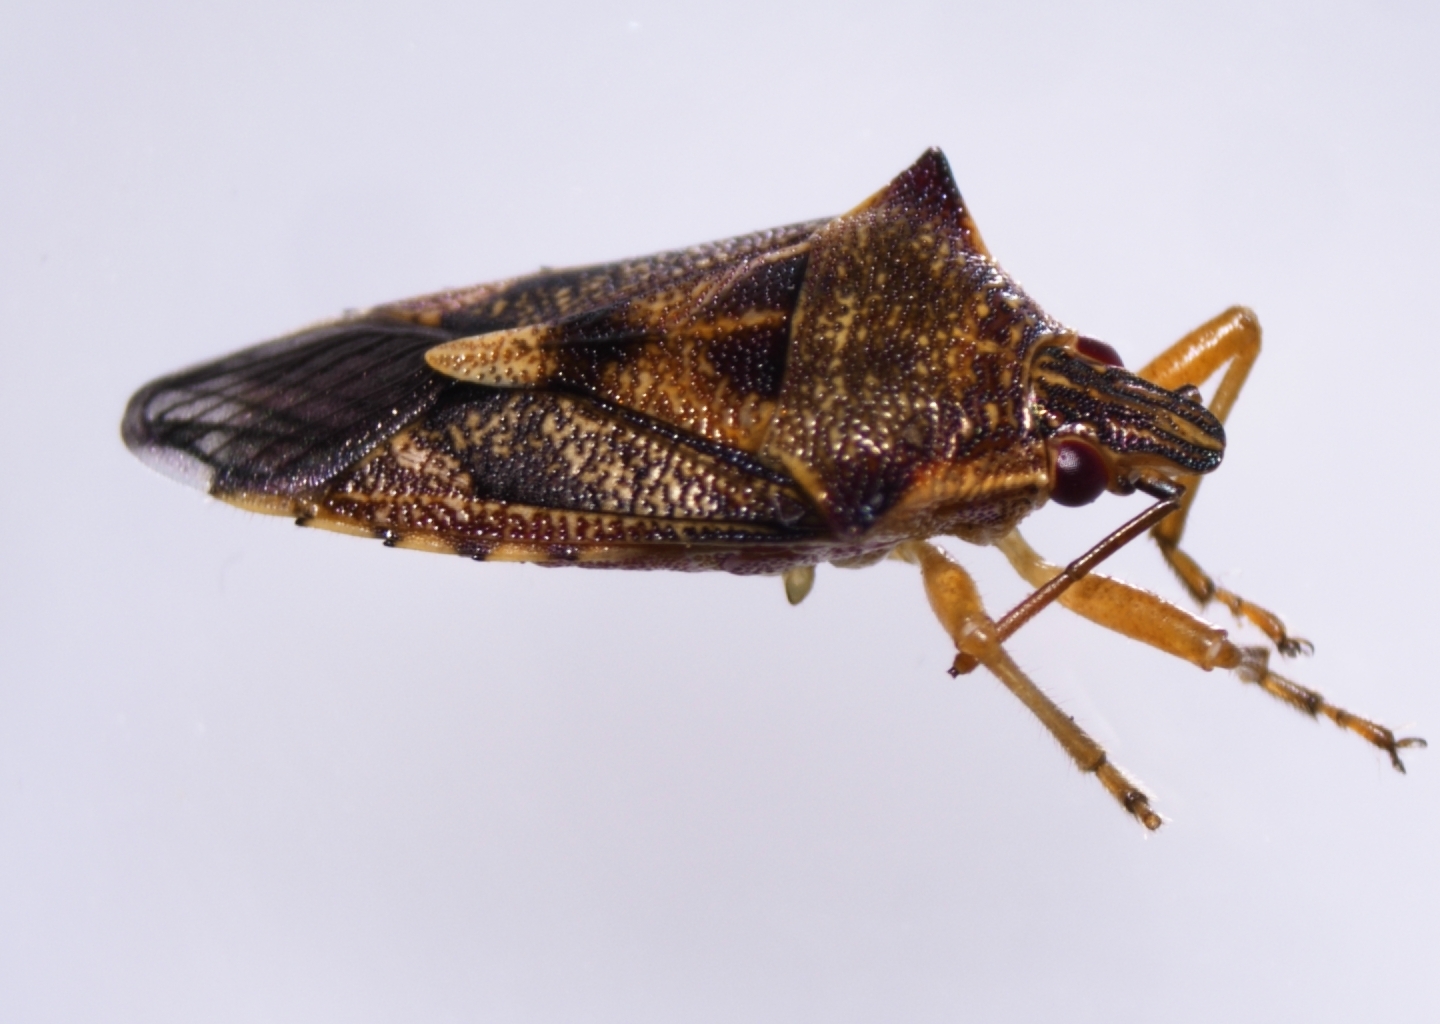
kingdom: Animalia
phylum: Arthropoda
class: Insecta
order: Hemiptera
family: Pentatomidae
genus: Oechalia
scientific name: Oechalia schellenbergii
